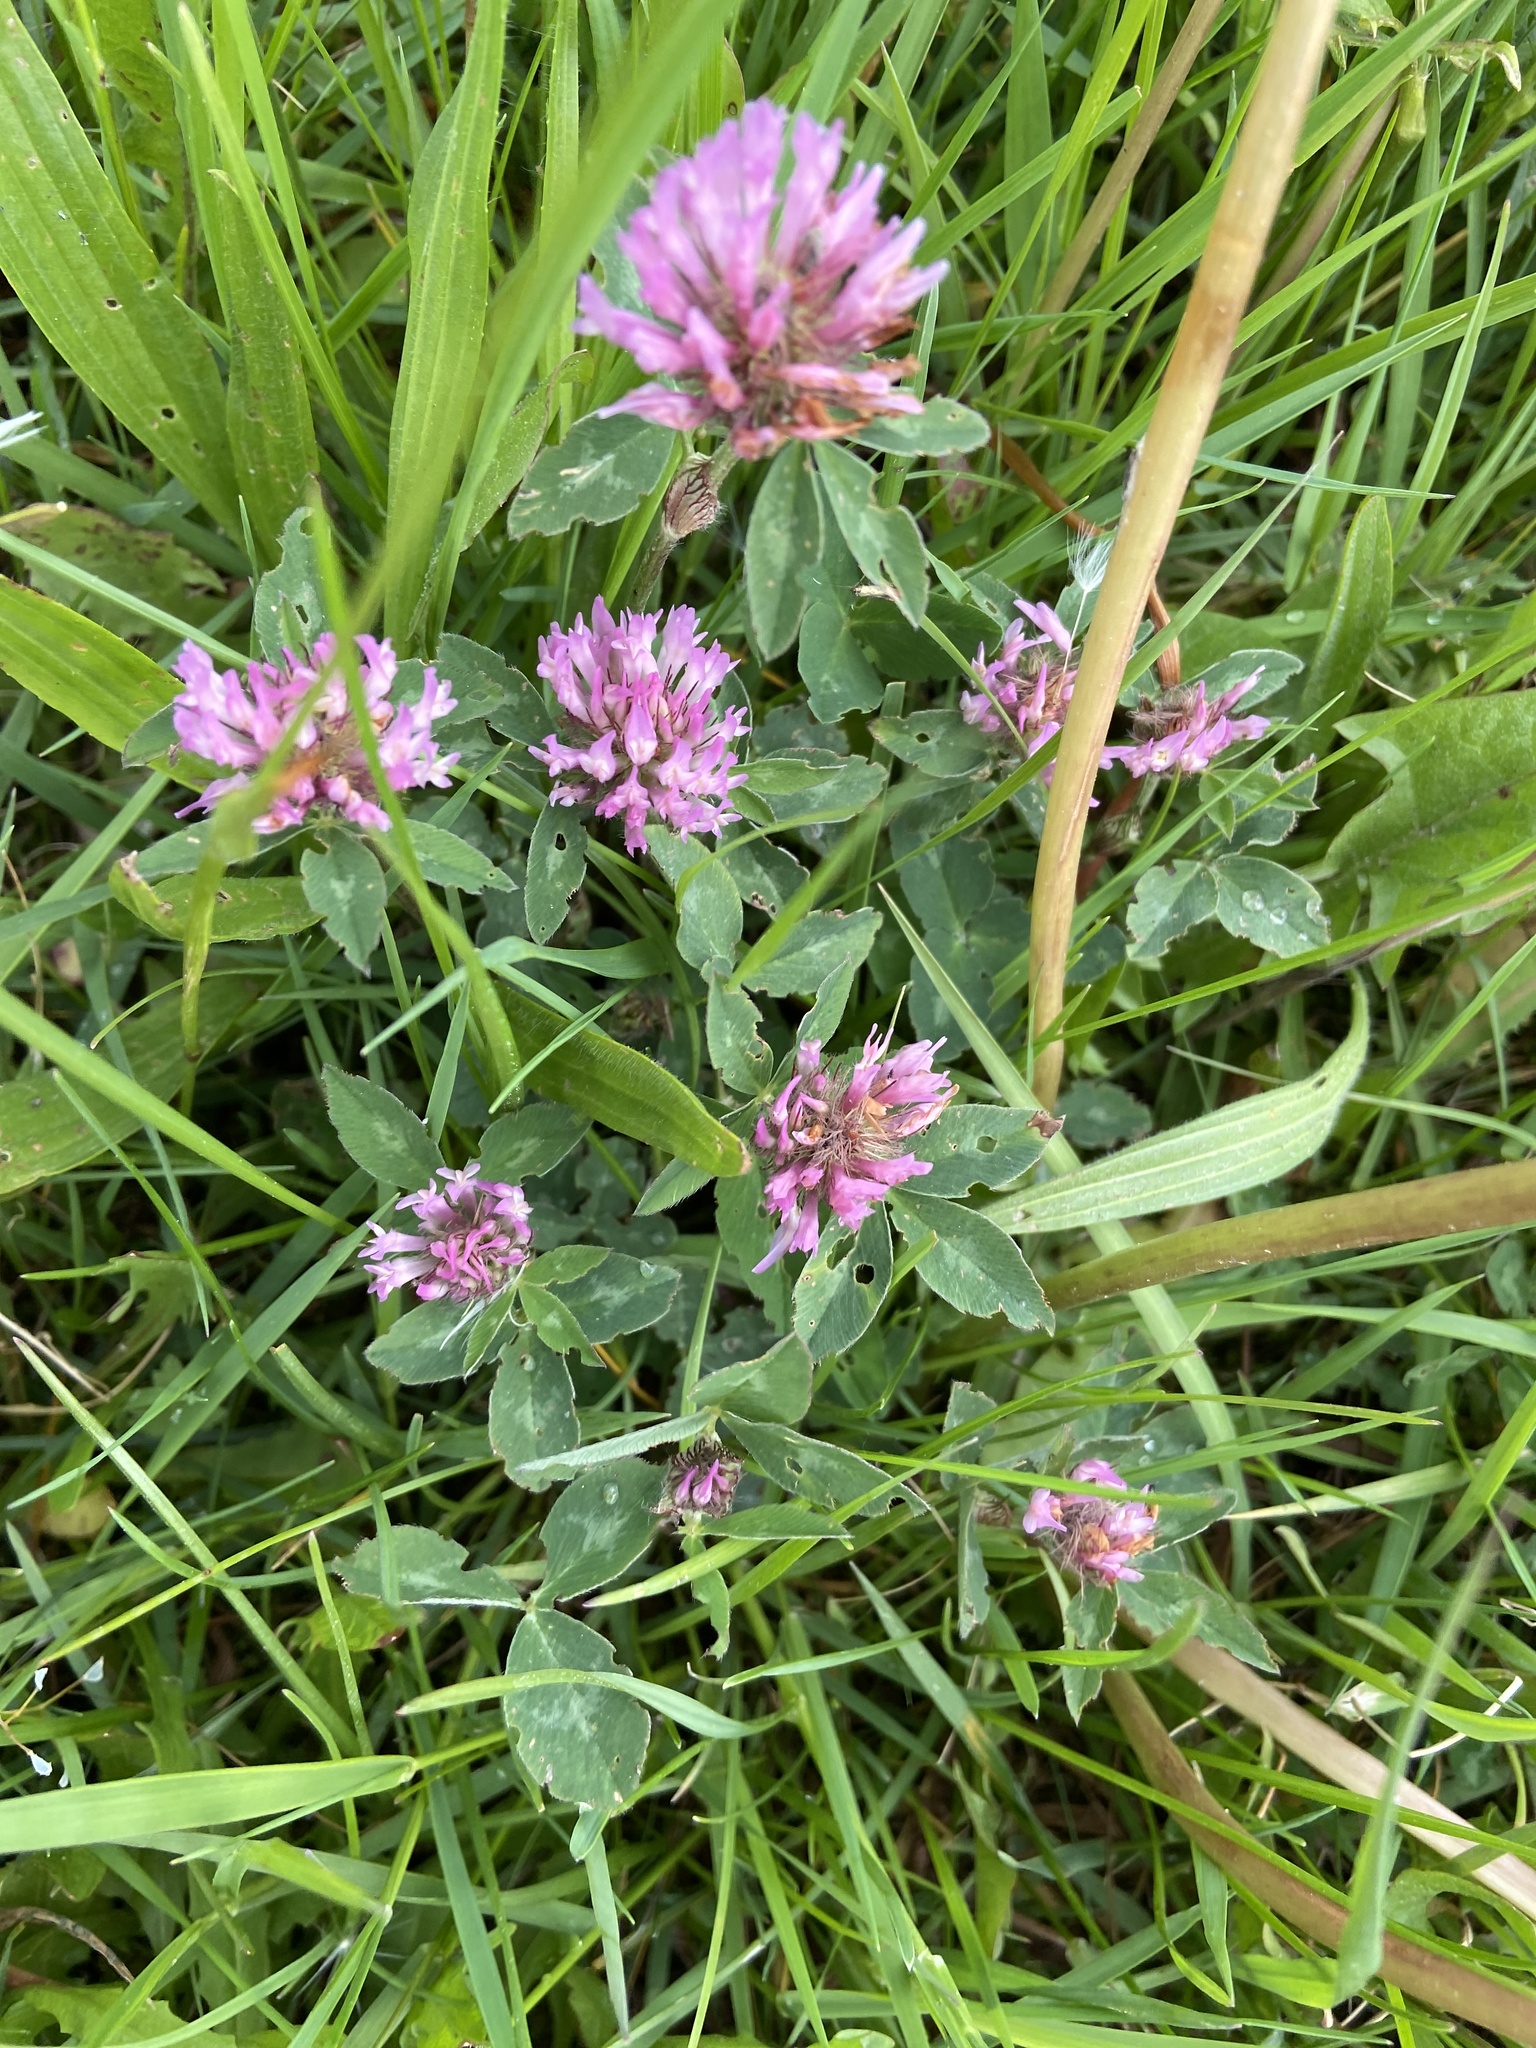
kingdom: Plantae
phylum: Tracheophyta
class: Magnoliopsida
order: Fabales
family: Fabaceae
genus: Trifolium
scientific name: Trifolium pratense
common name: Red clover
